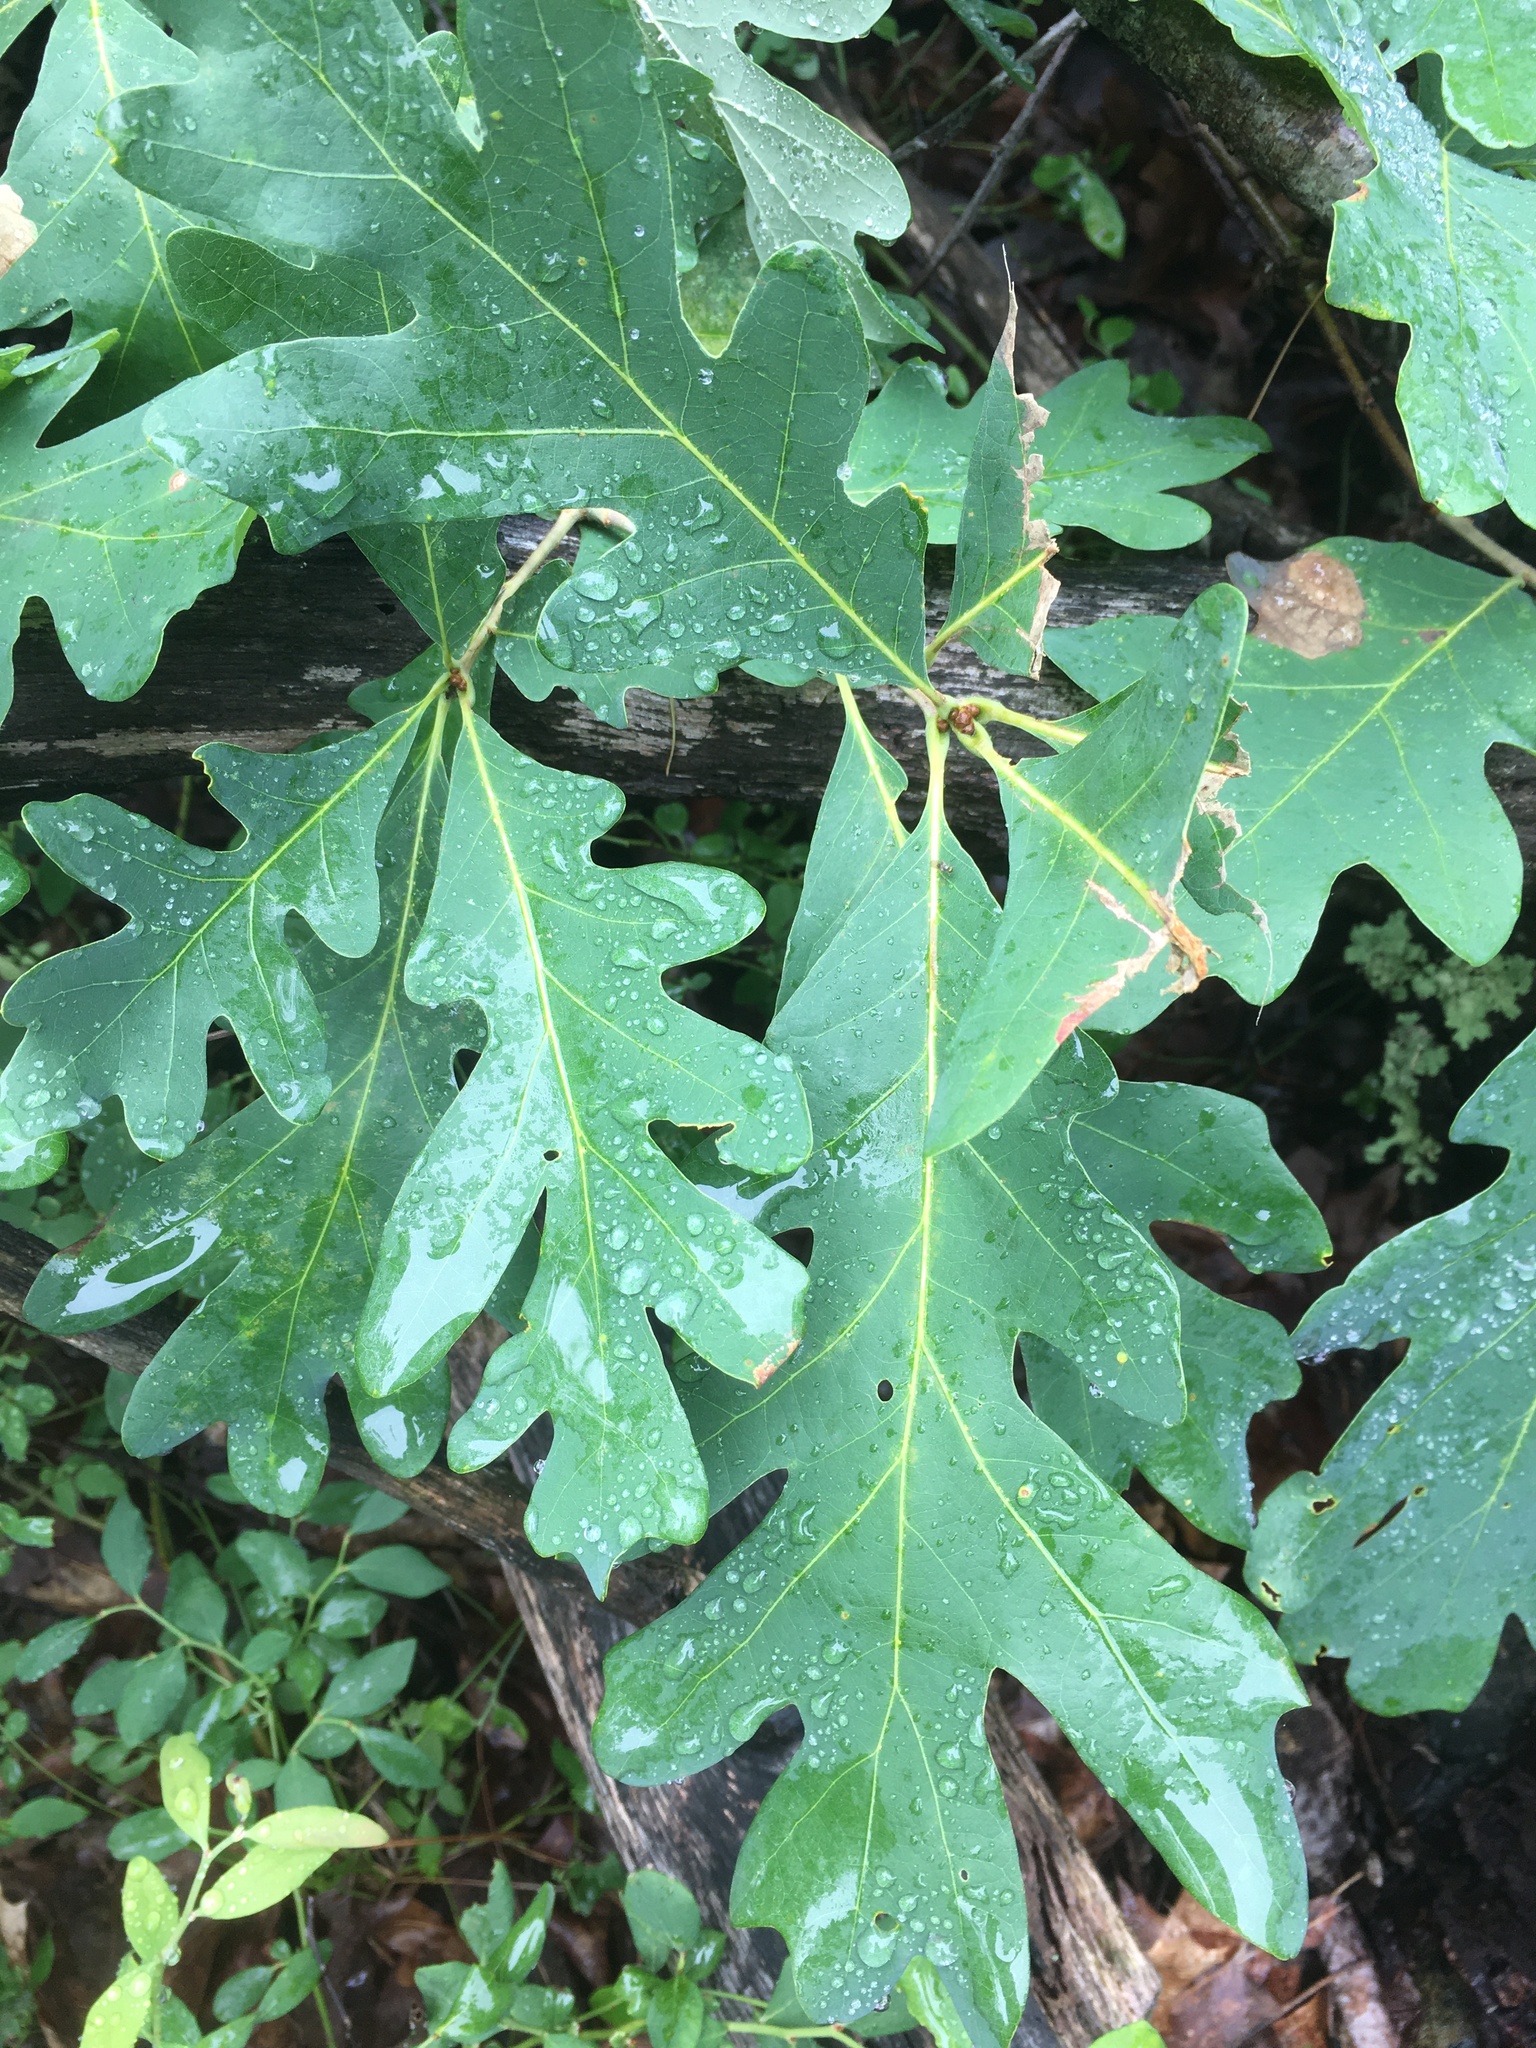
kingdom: Plantae
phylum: Tracheophyta
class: Magnoliopsida
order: Fagales
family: Fagaceae
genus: Quercus
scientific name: Quercus alba
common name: White oak
